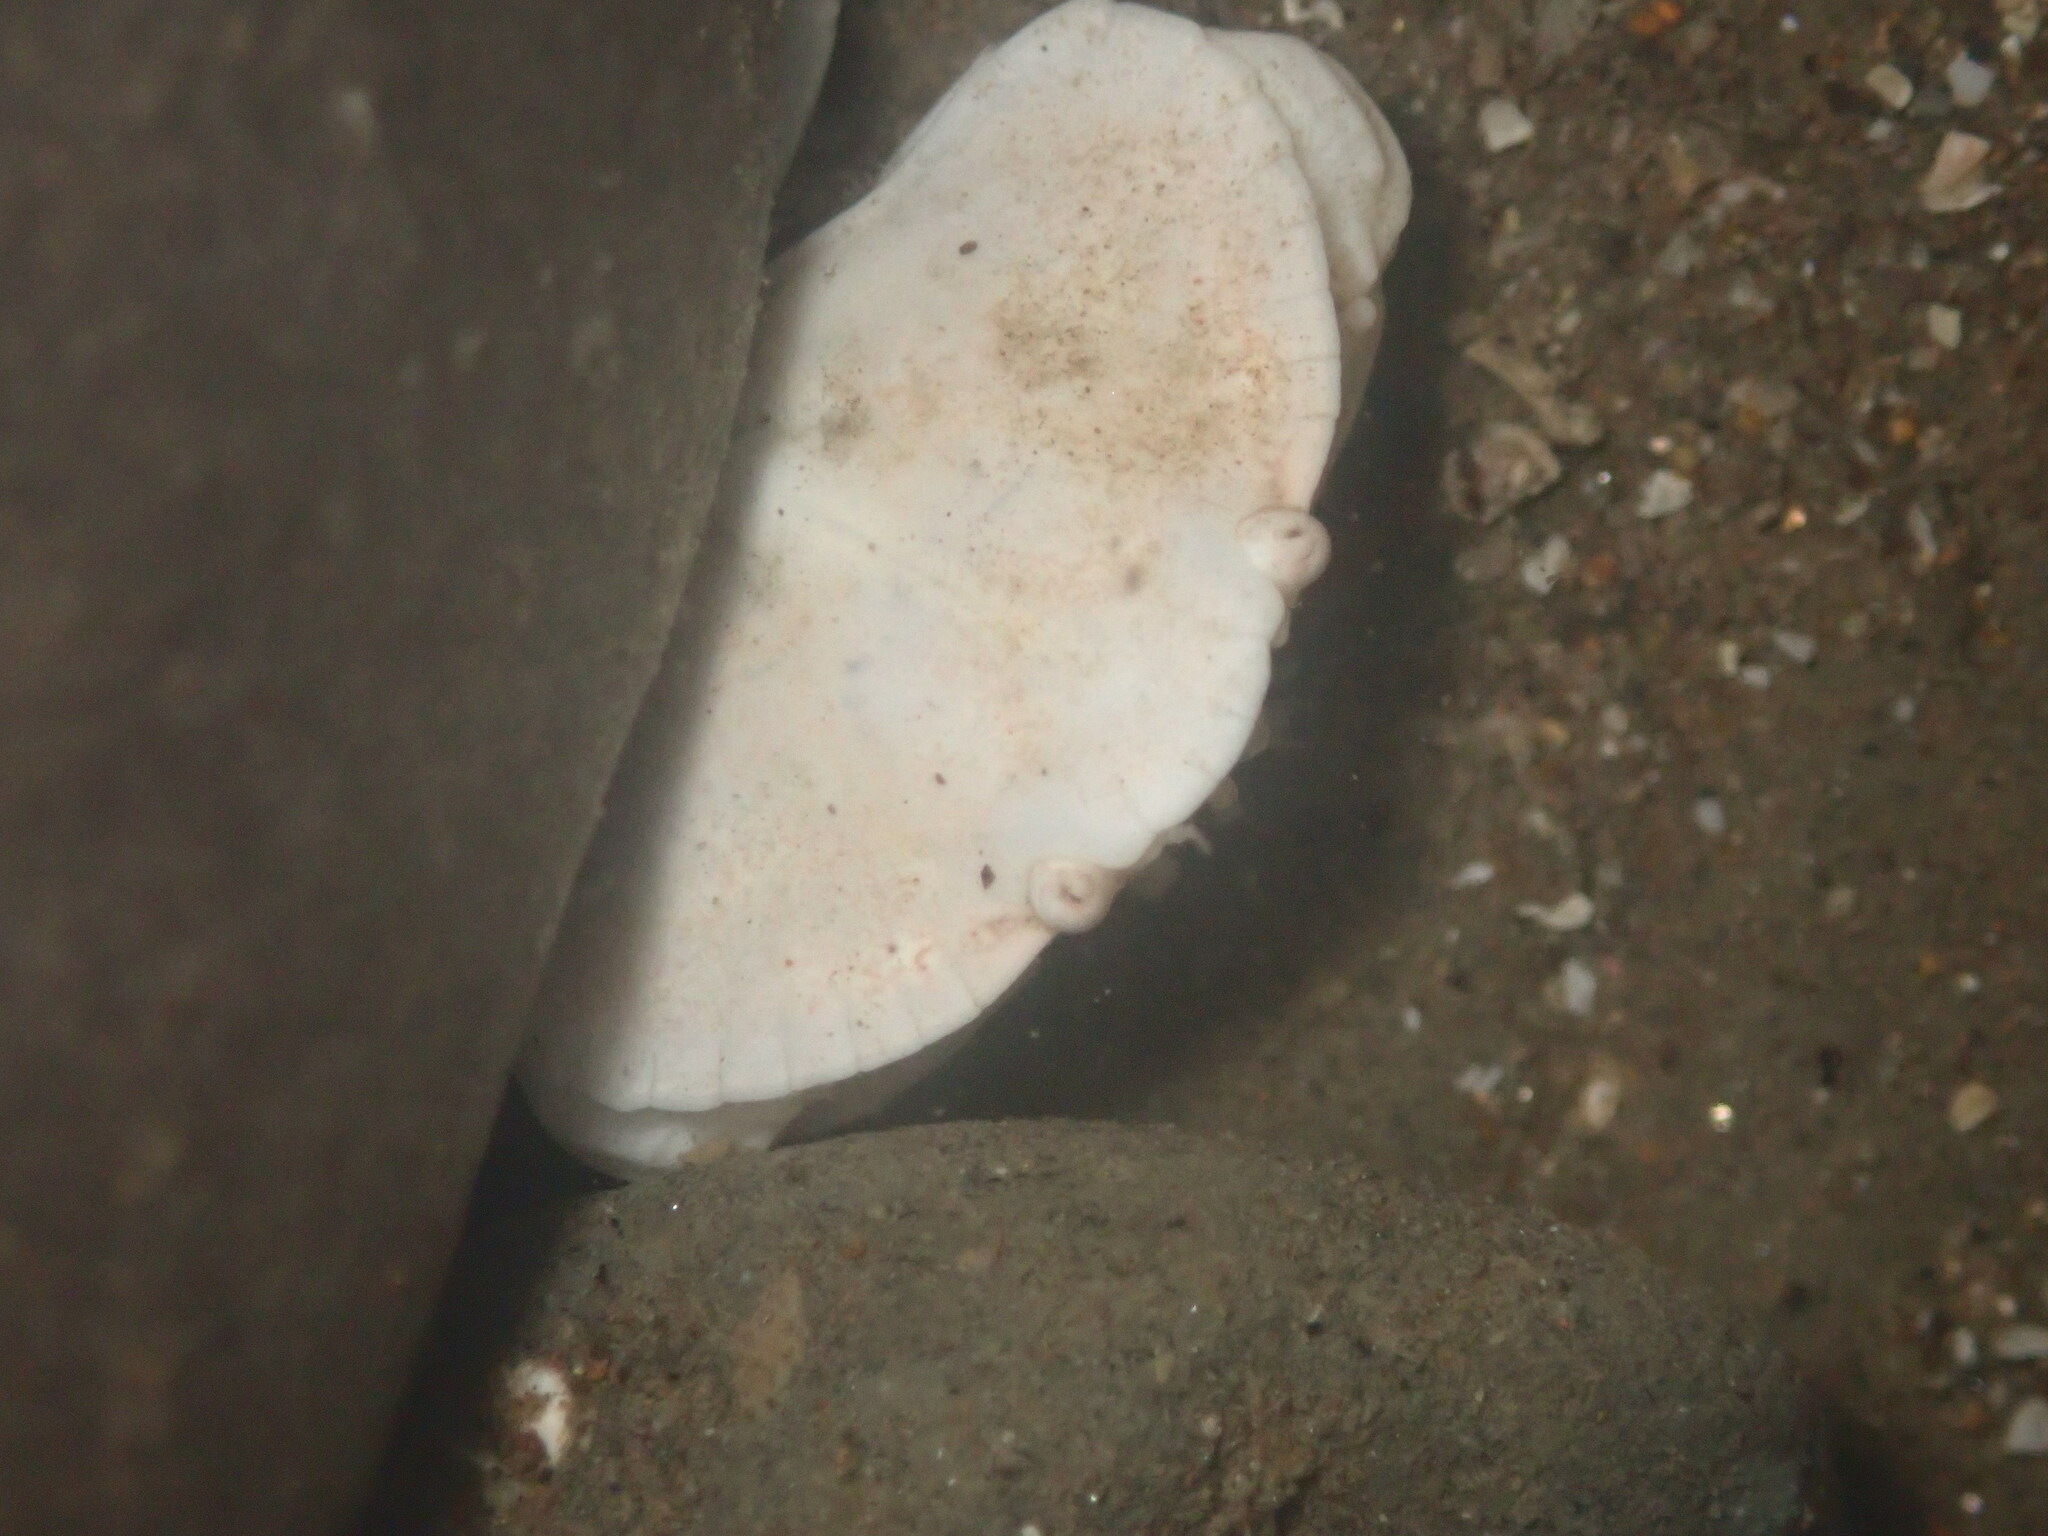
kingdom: Animalia
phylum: Arthropoda
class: Malacostraca
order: Decapoda
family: Cancridae
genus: Cancer
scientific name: Cancer productus
